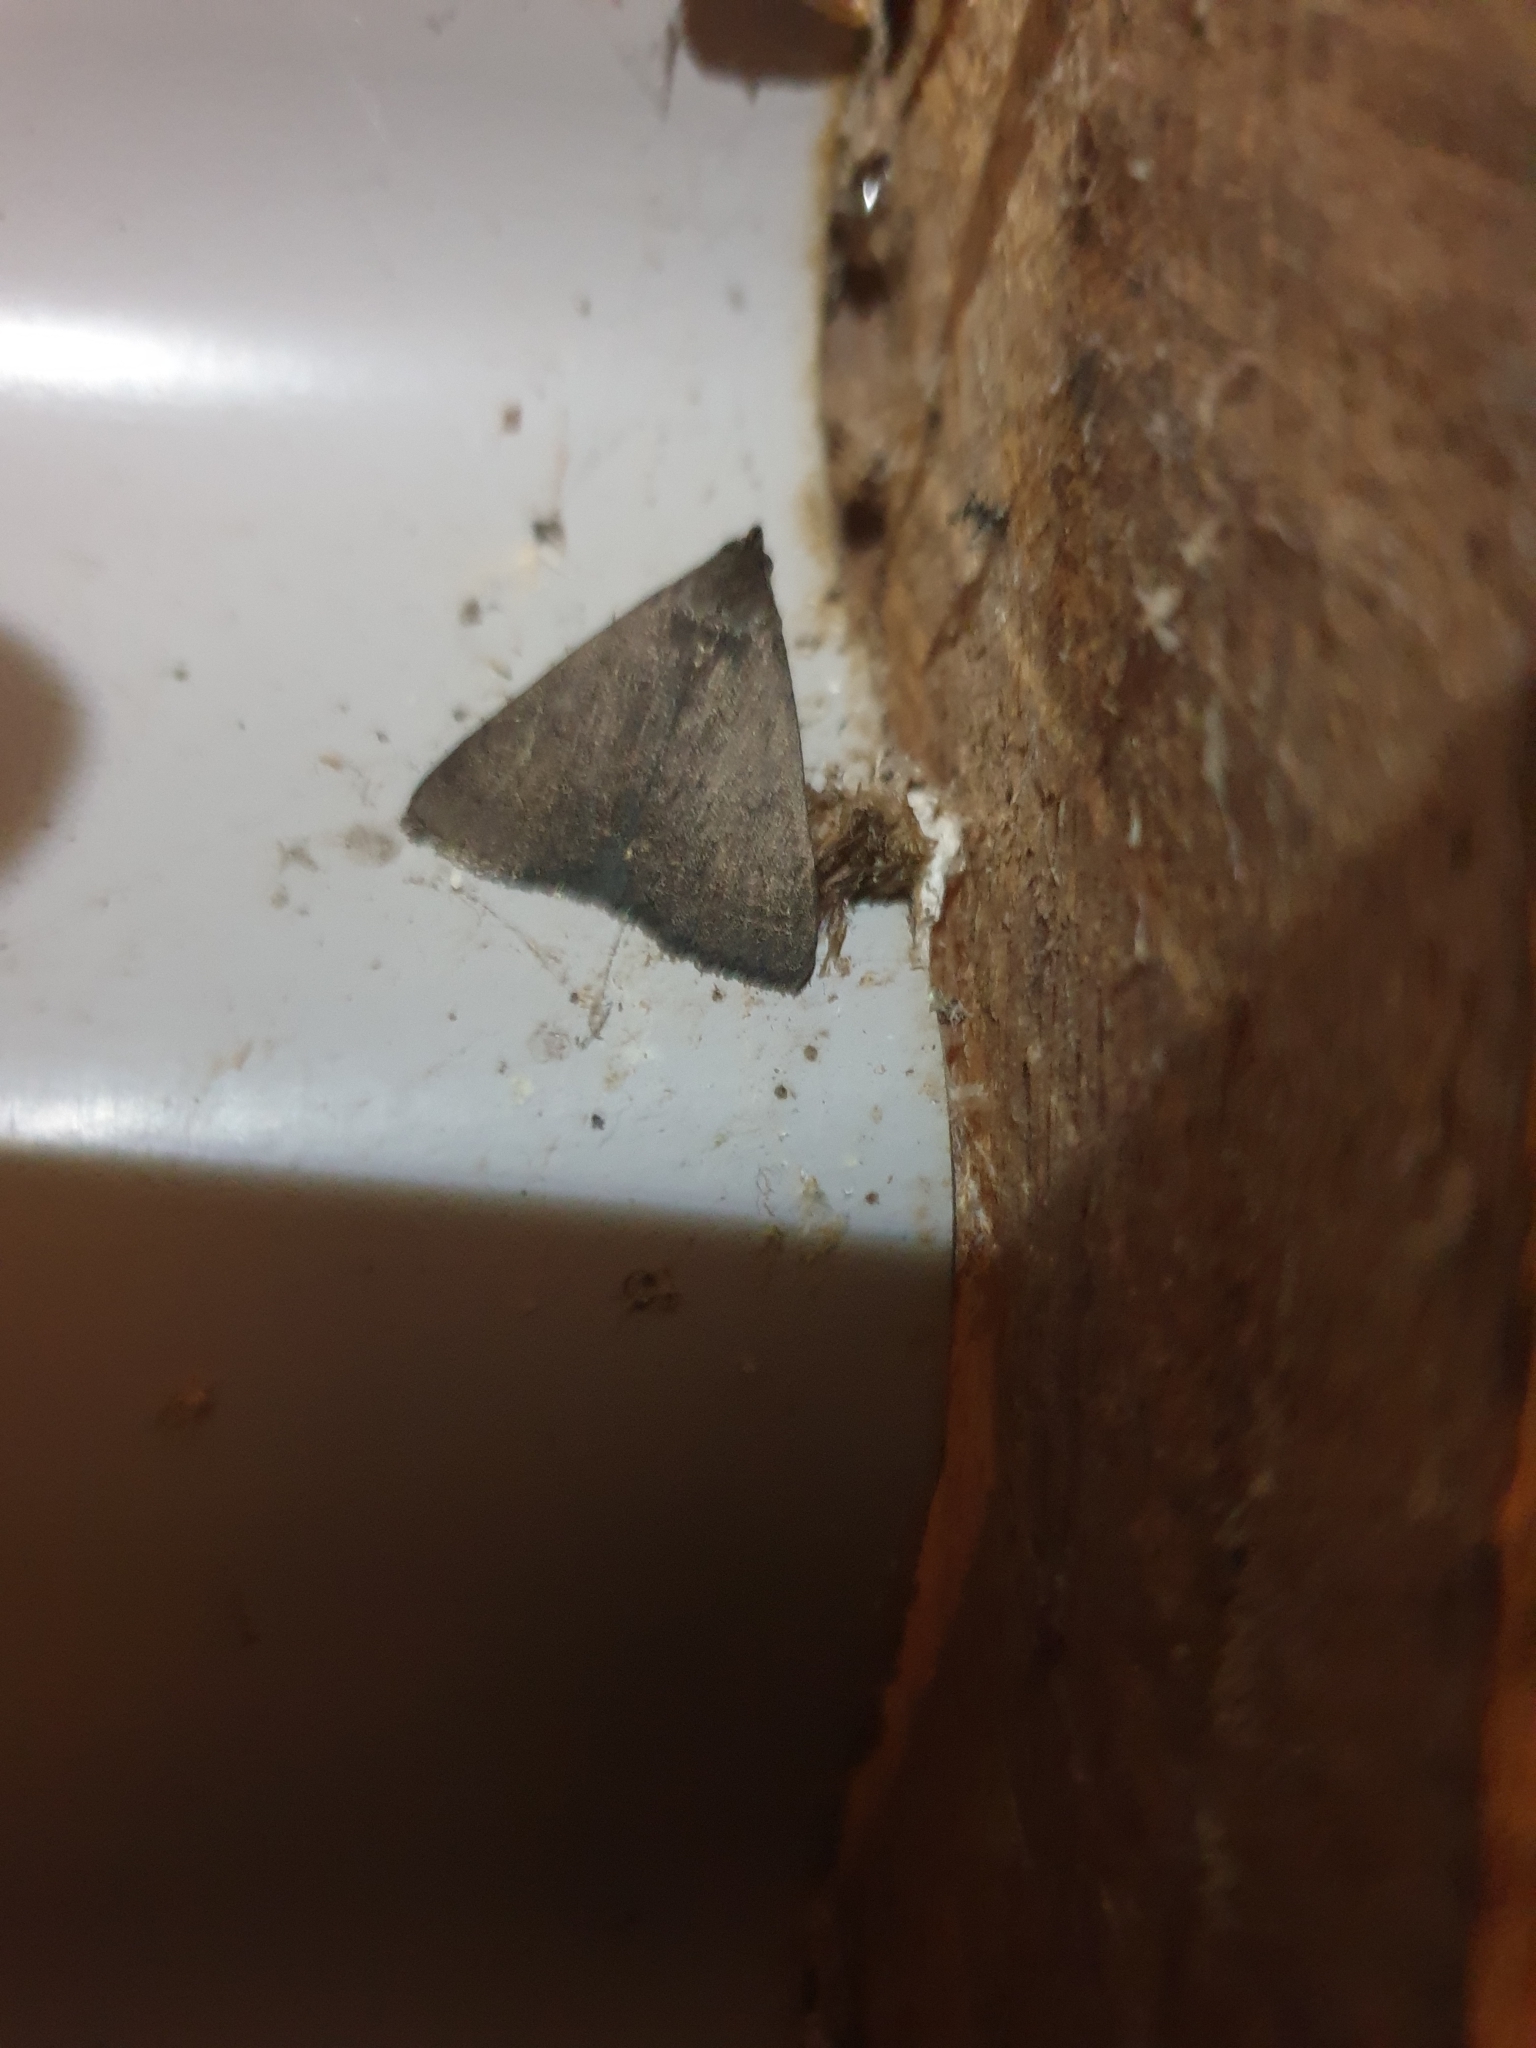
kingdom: Animalia
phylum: Arthropoda
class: Insecta
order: Lepidoptera
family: Erebidae
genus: Simplicia
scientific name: Simplicia cornicalis
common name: Tiki hut litter moth
